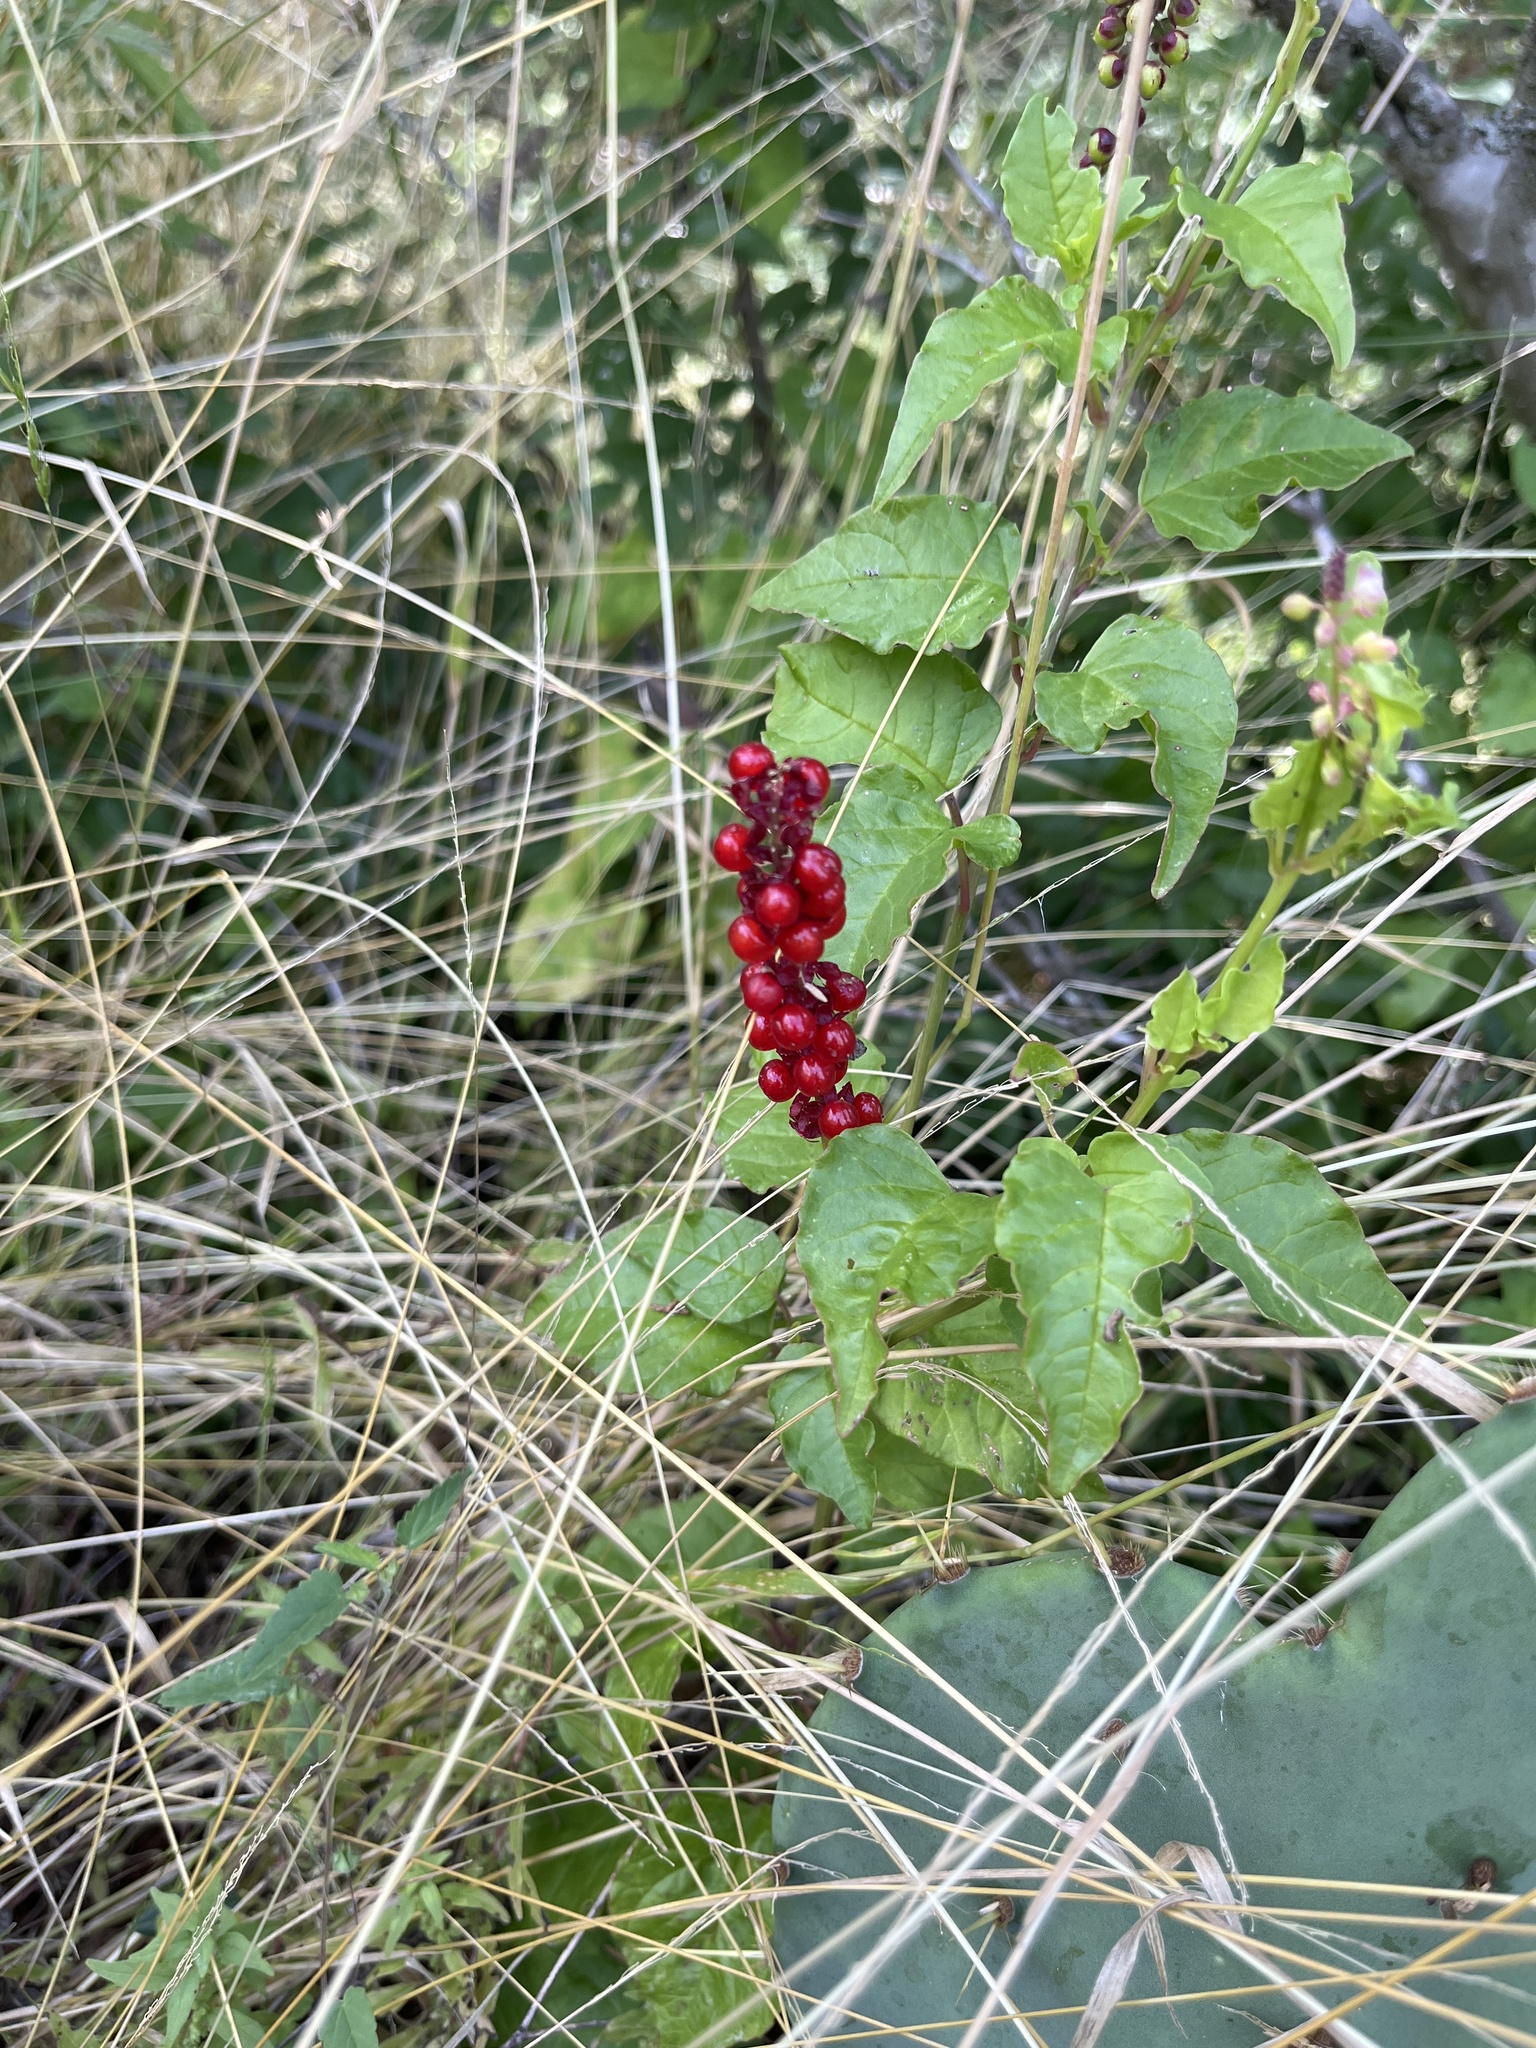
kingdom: Plantae
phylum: Tracheophyta
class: Magnoliopsida
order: Caryophyllales
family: Phytolaccaceae
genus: Rivina
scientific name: Rivina humilis
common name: Rougeplant
